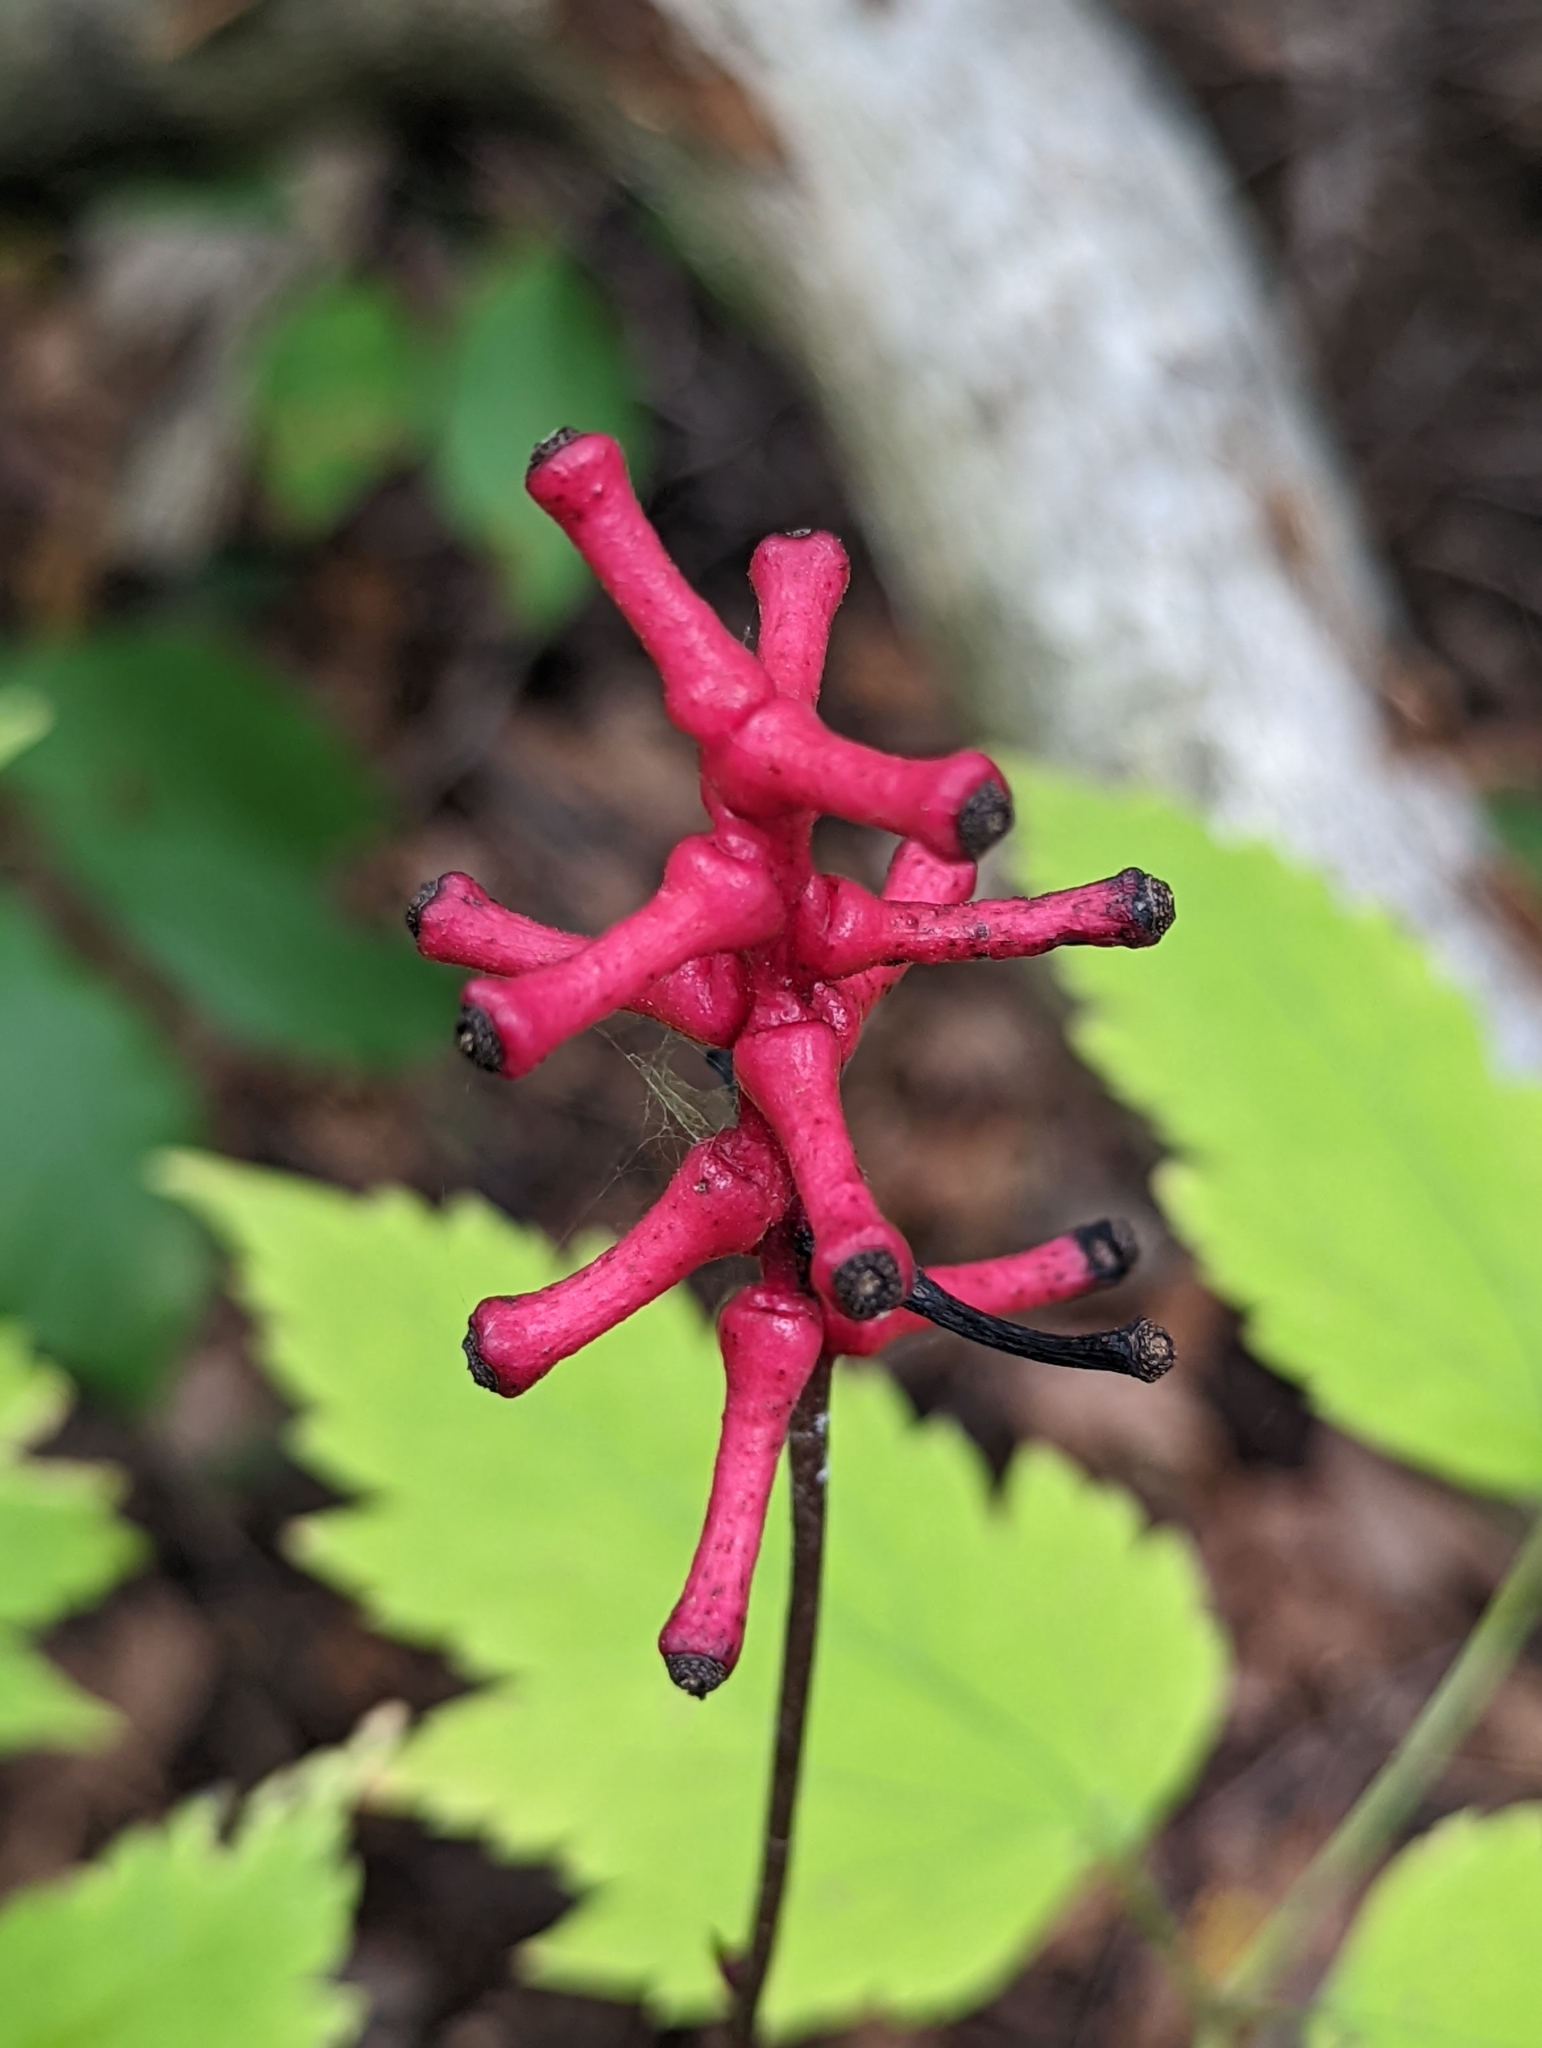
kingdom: Plantae
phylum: Tracheophyta
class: Magnoliopsida
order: Ranunculales
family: Ranunculaceae
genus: Actaea
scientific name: Actaea pachypoda
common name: Doll's-eyes
